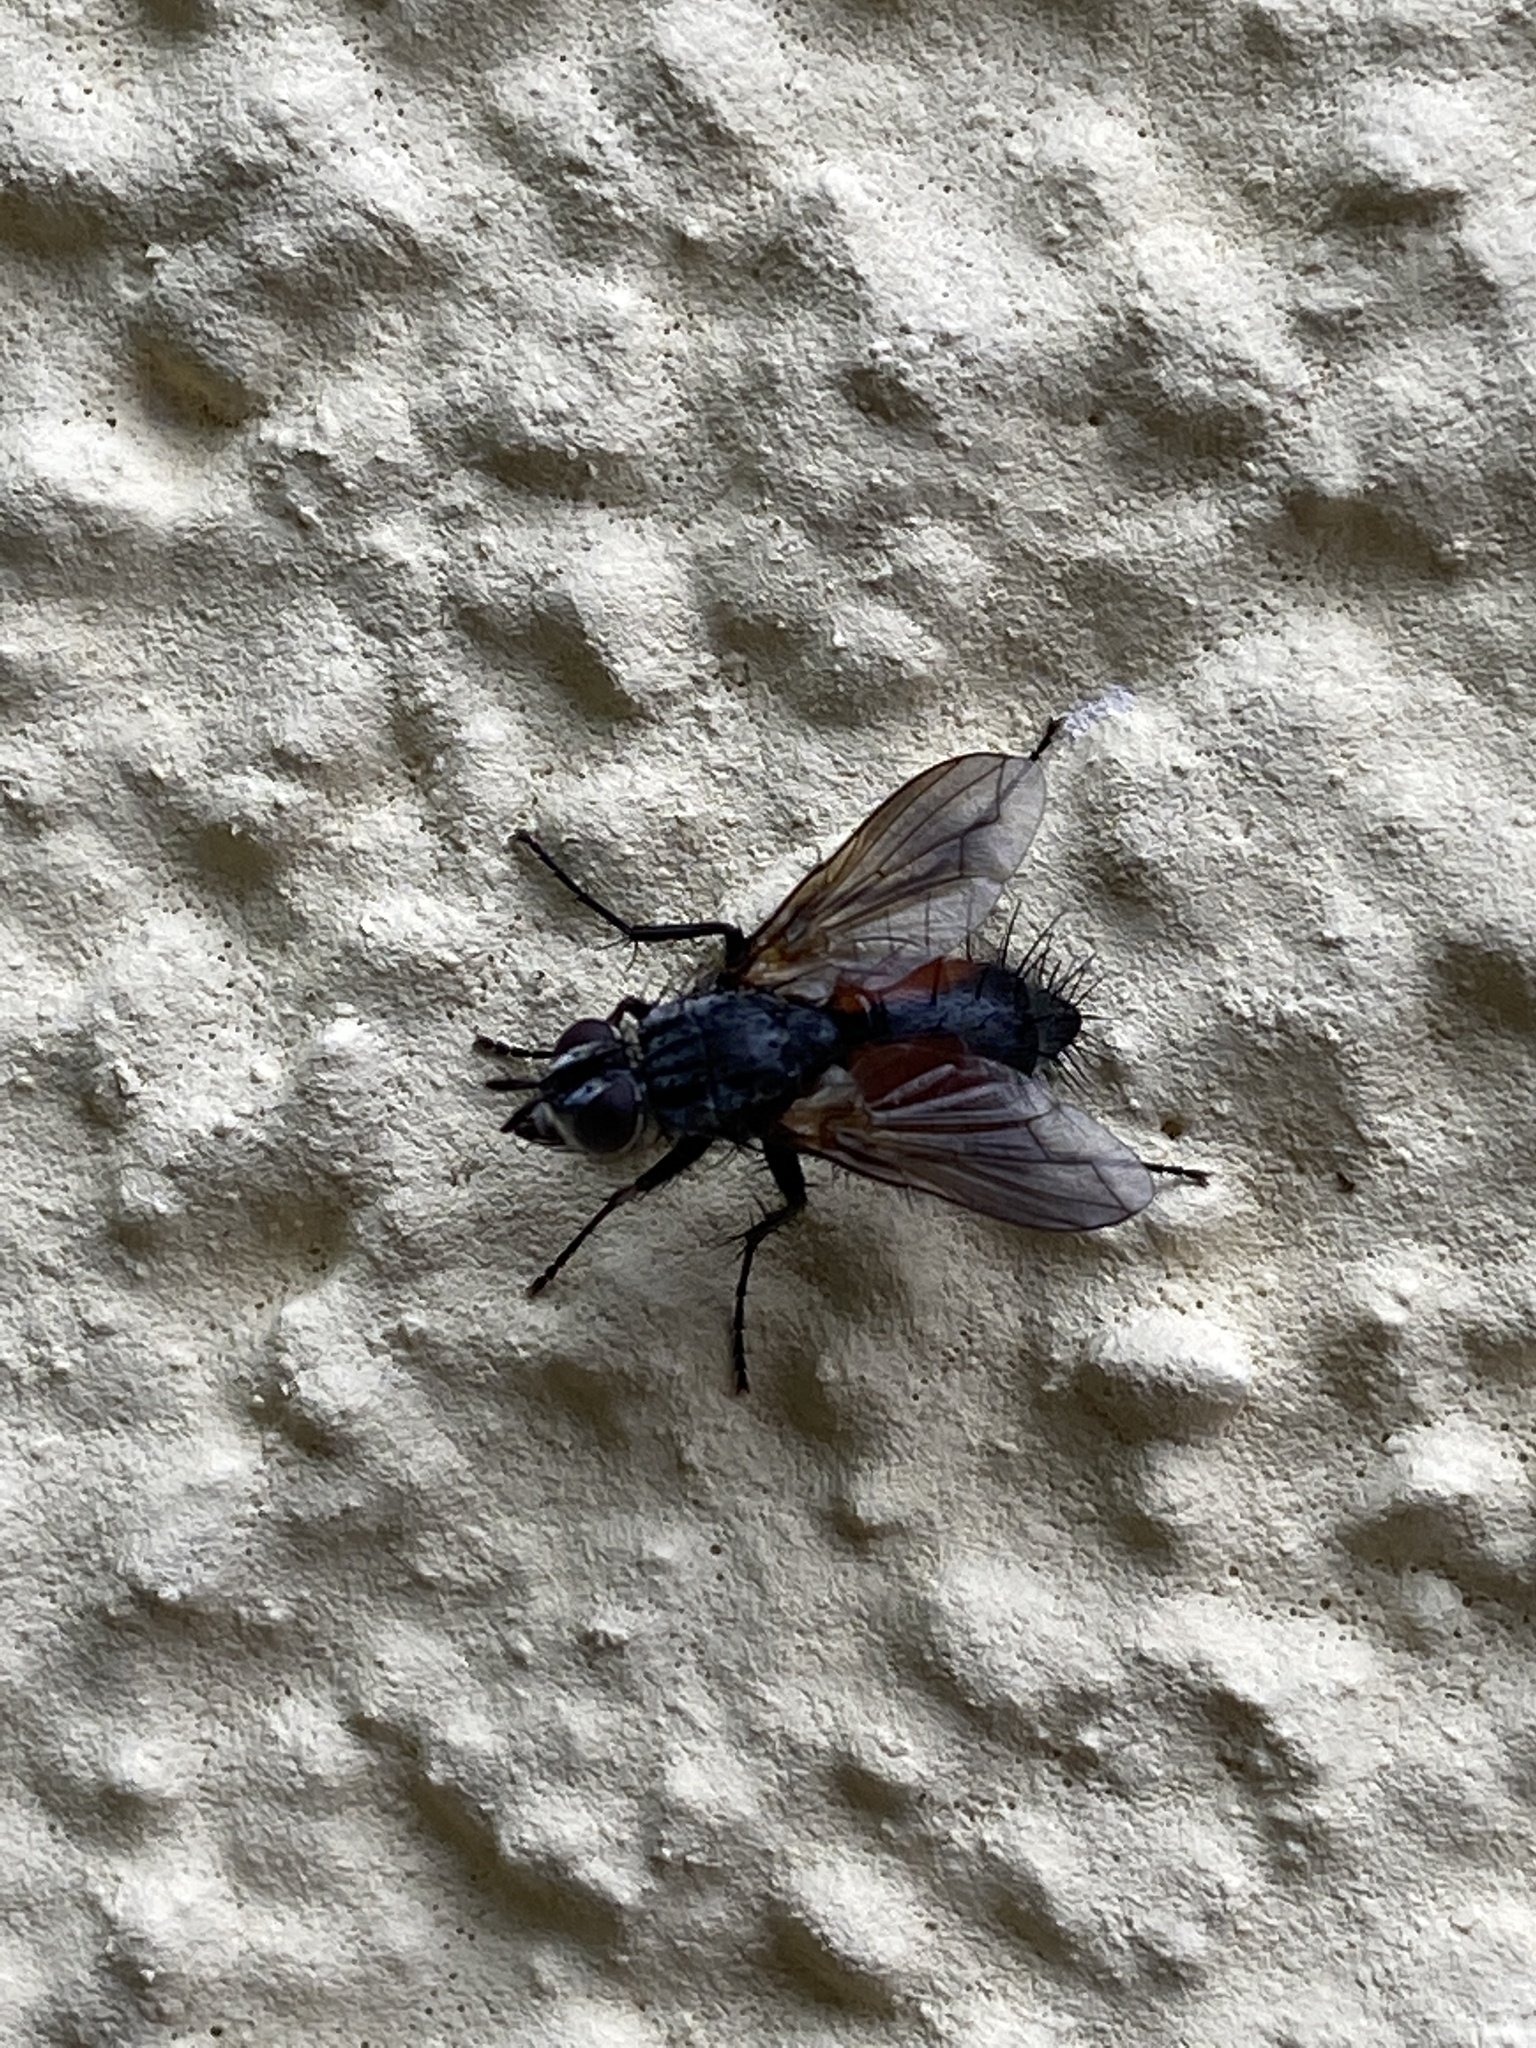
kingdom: Animalia
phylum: Arthropoda
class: Insecta
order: Diptera
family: Tachinidae
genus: Eriothrix
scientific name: Eriothrix rufomaculatus
